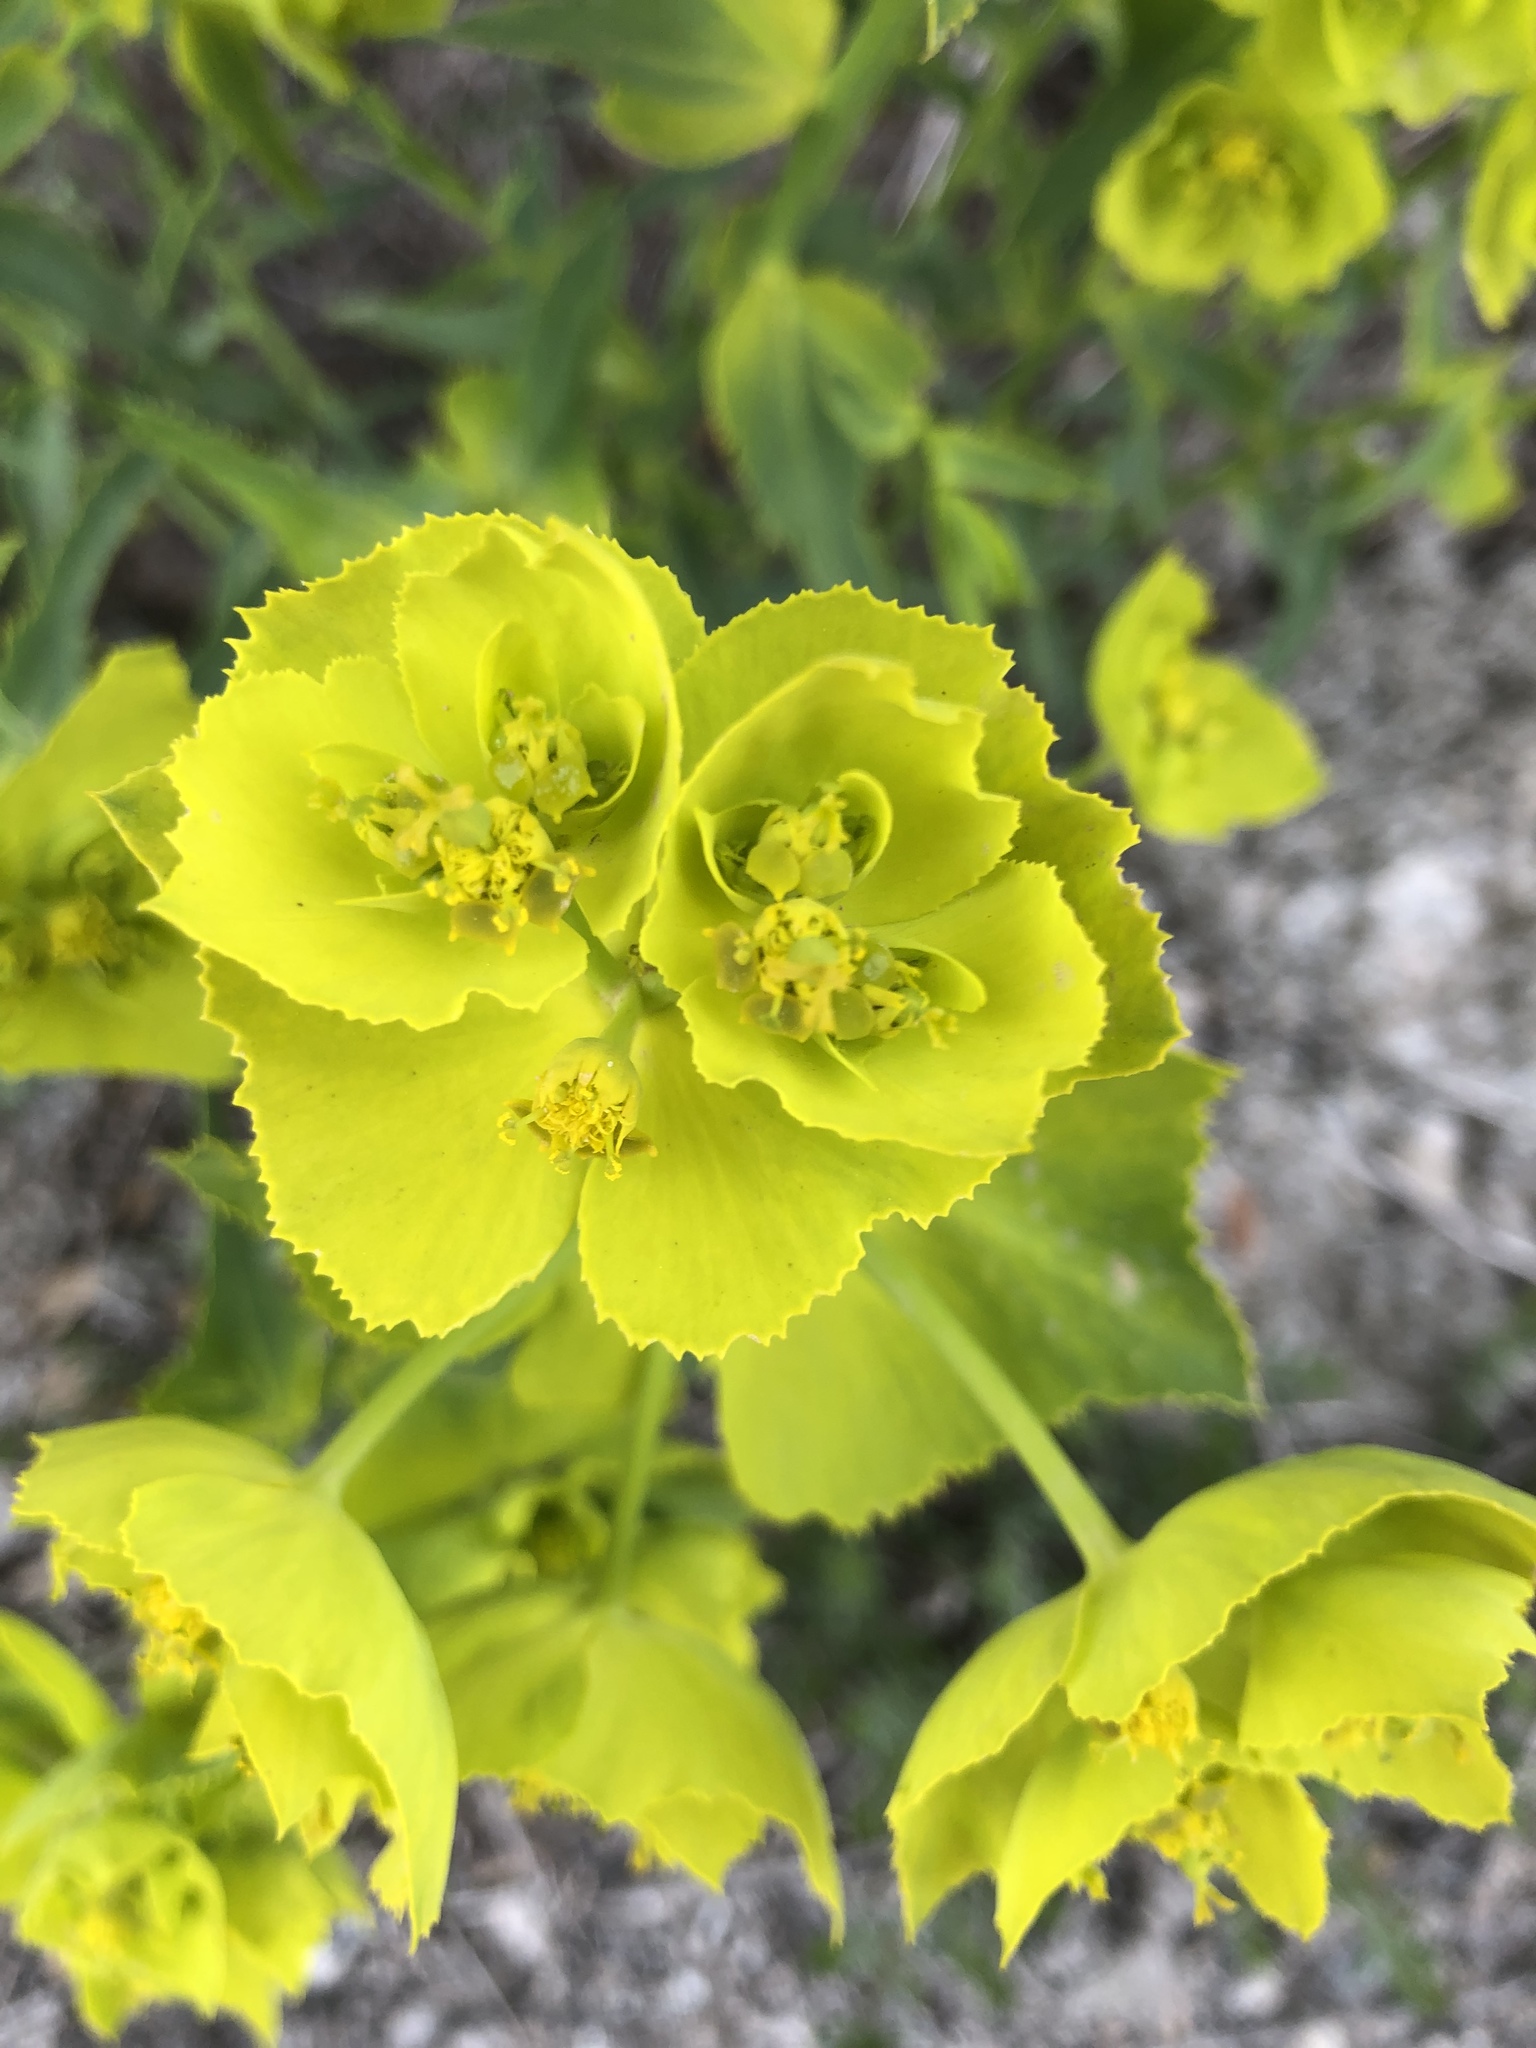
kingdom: Plantae
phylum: Tracheophyta
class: Magnoliopsida
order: Malpighiales
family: Euphorbiaceae
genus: Euphorbia
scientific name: Euphorbia serrata
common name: Serrate spurge
